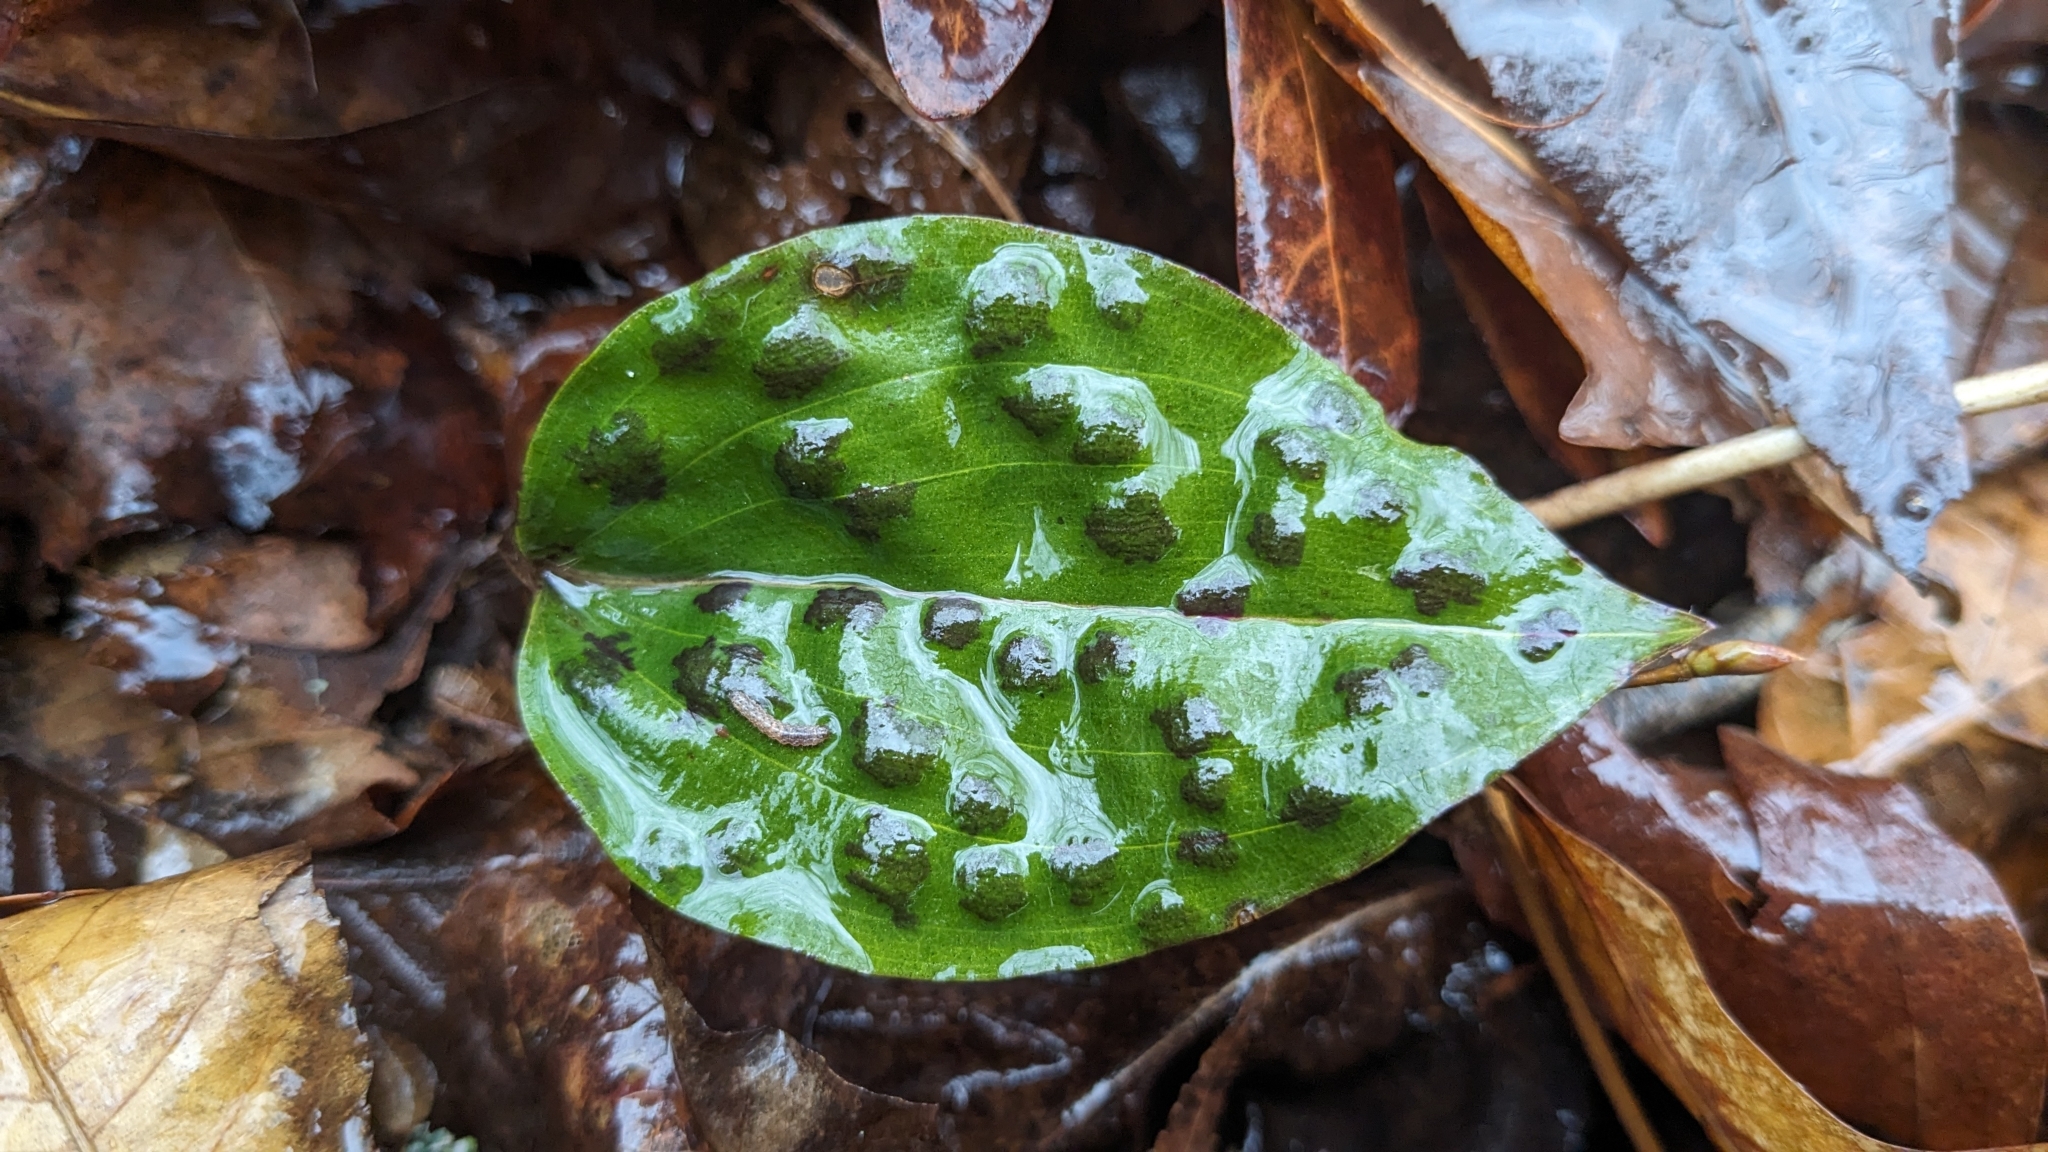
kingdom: Plantae
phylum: Tracheophyta
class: Liliopsida
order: Asparagales
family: Orchidaceae
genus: Tipularia
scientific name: Tipularia discolor
